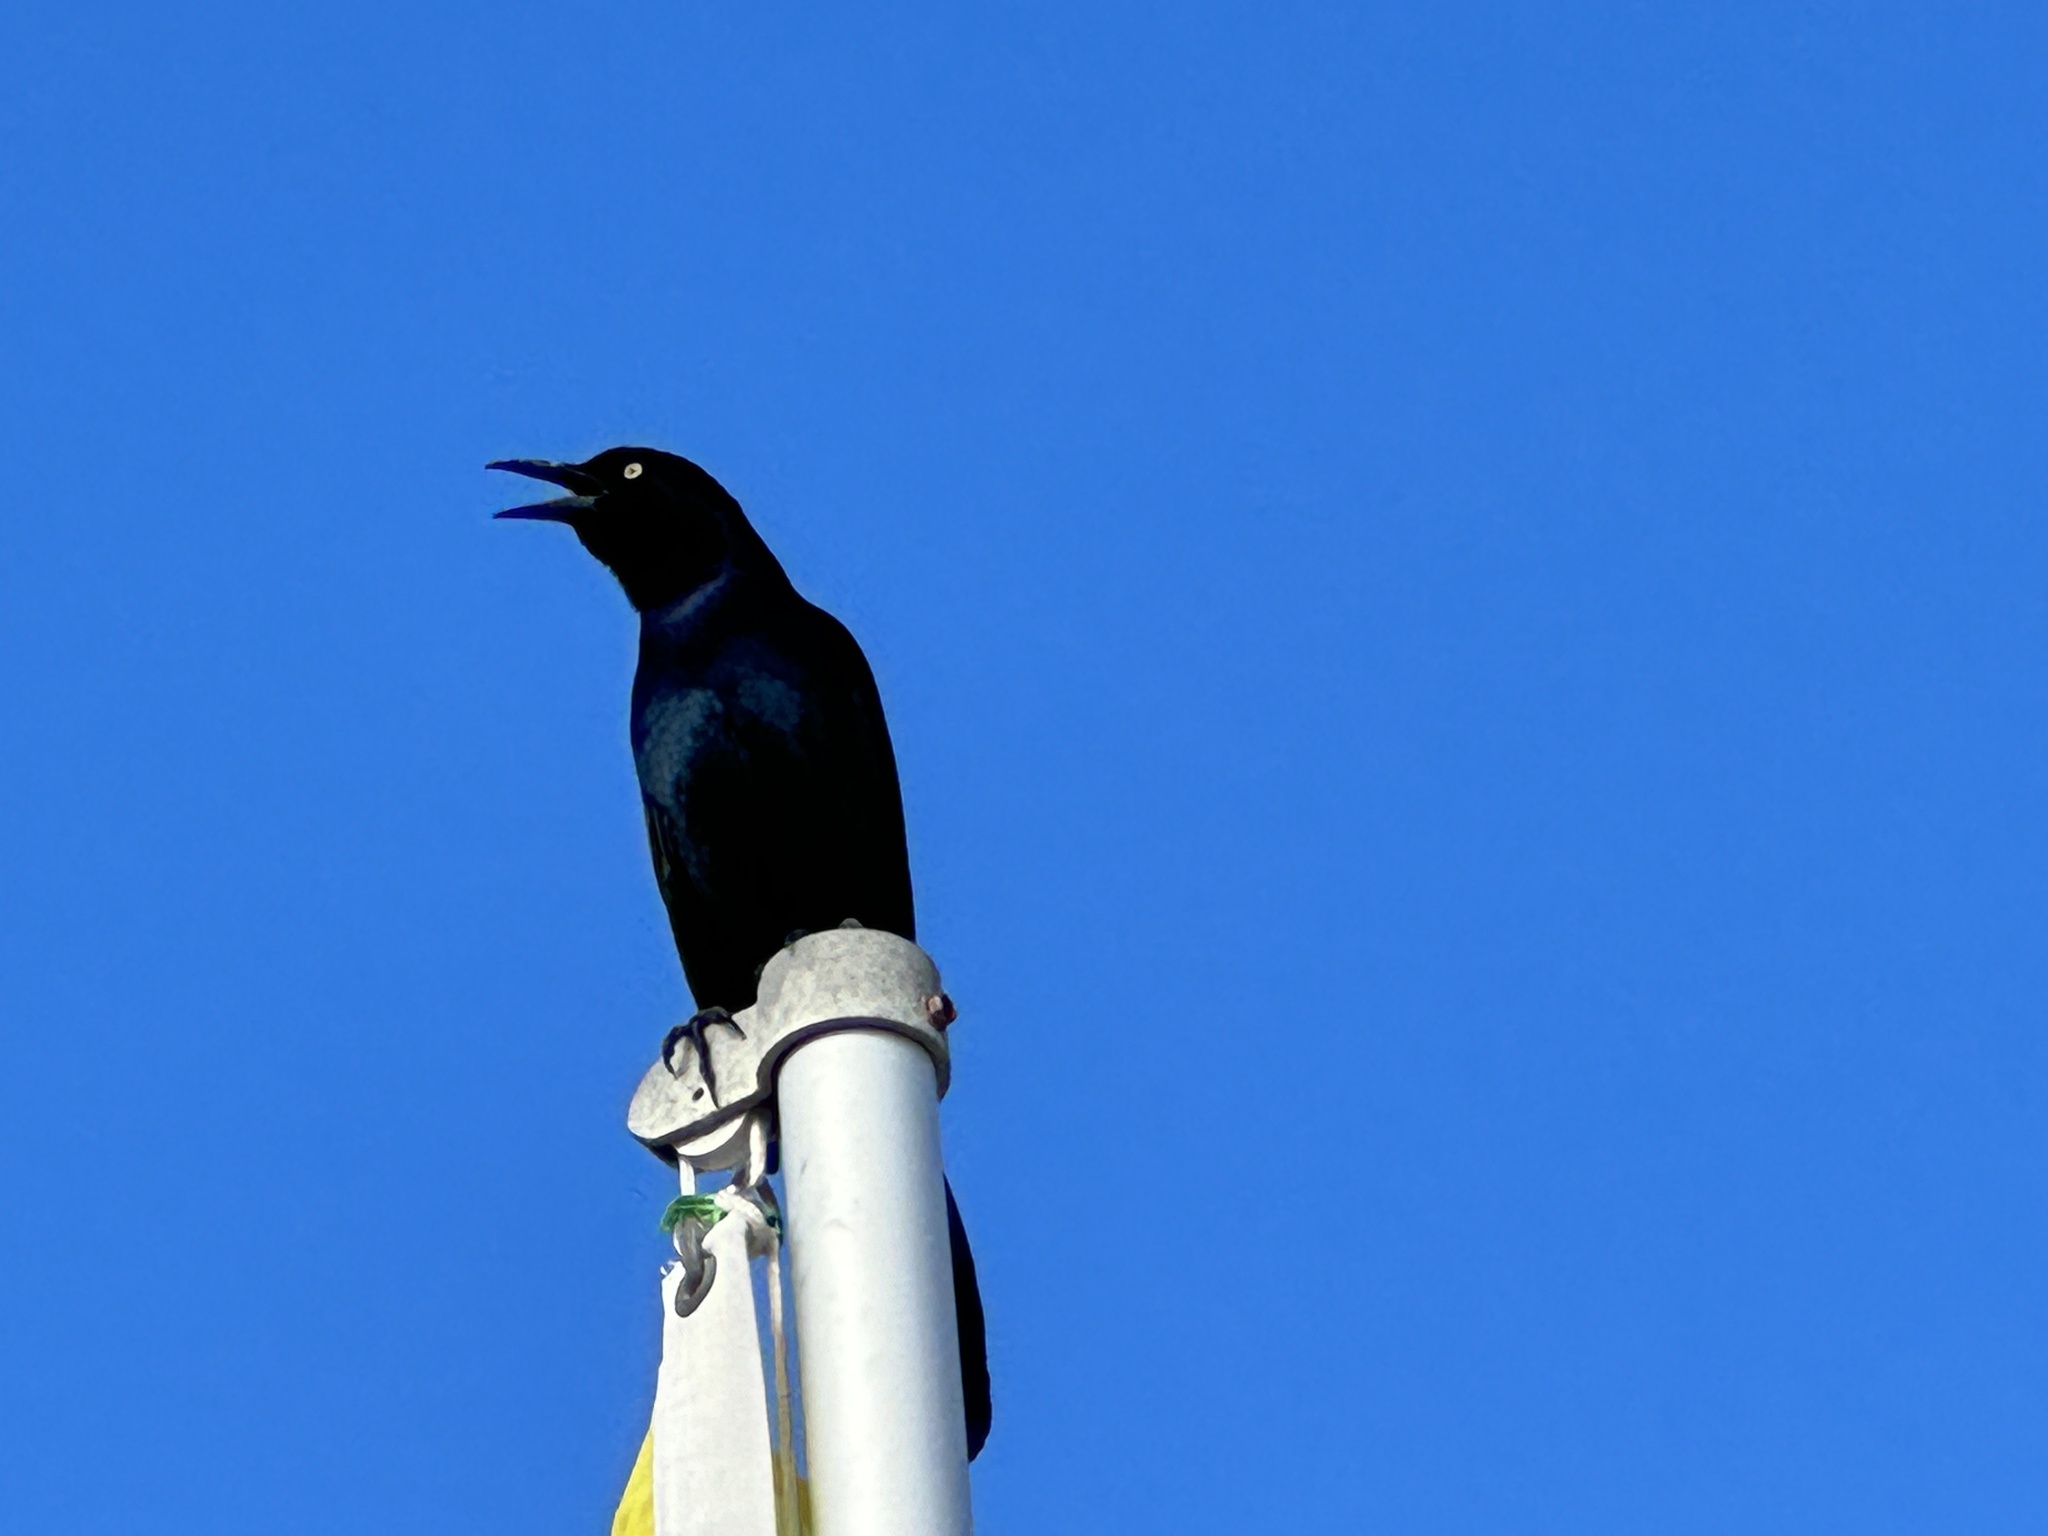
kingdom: Animalia
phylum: Chordata
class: Aves
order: Passeriformes
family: Icteridae
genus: Quiscalus
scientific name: Quiscalus major
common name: Boat-tailed grackle
